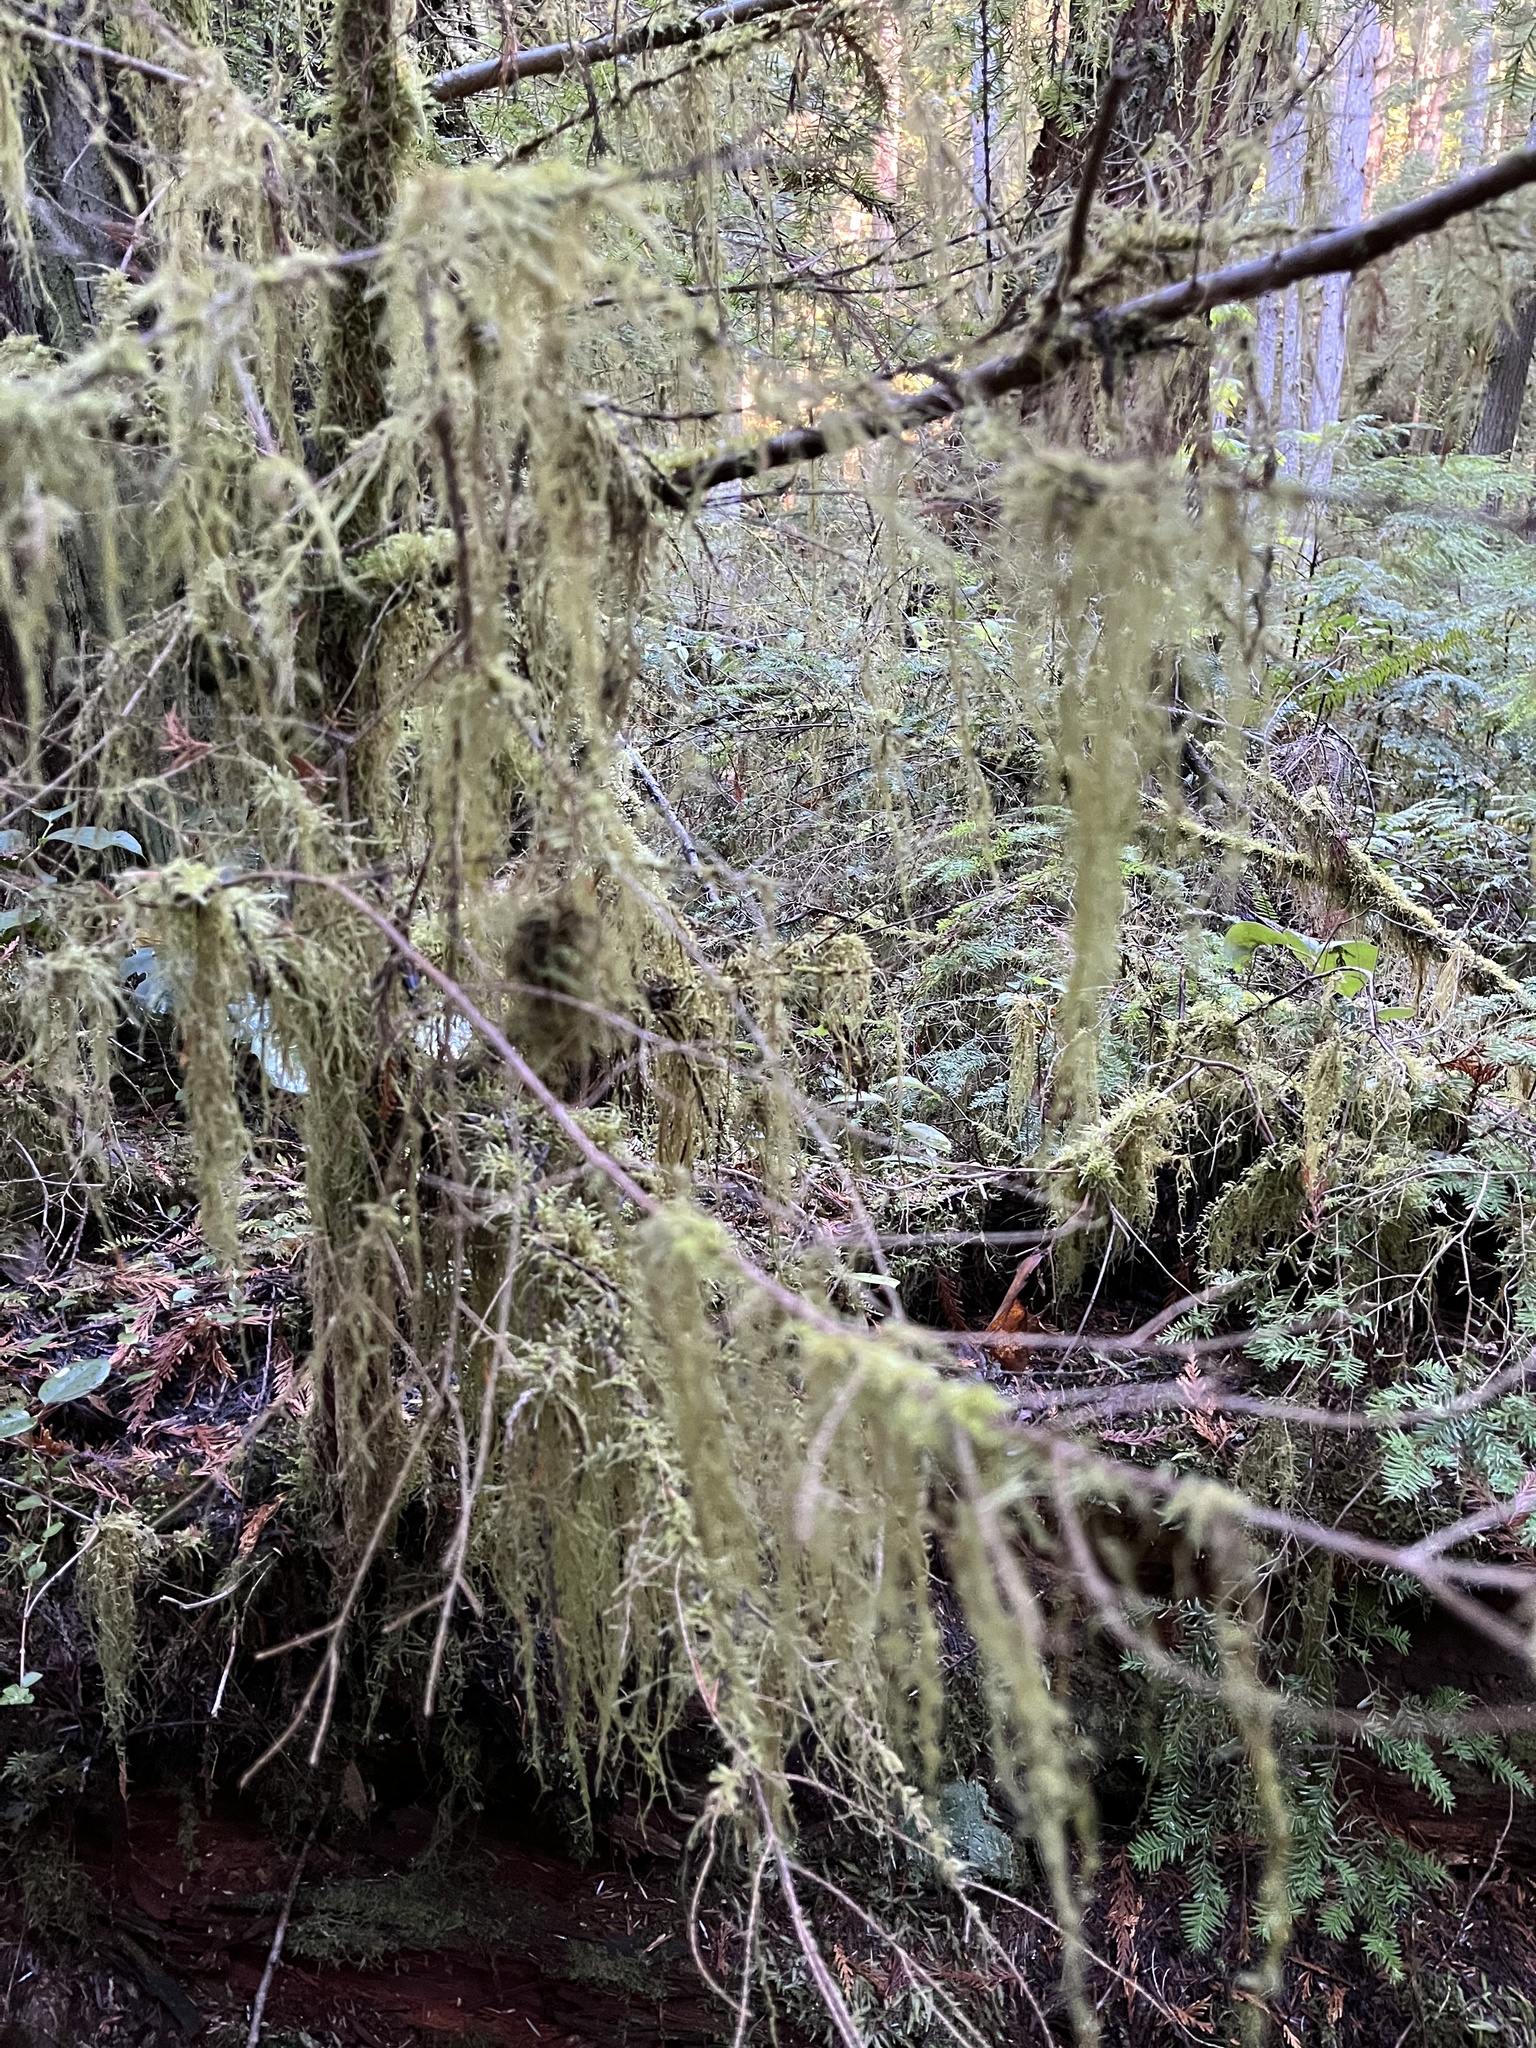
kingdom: Plantae
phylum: Bryophyta
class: Bryopsida
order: Hypnales
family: Lembophyllaceae
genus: Pseudisothecium
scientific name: Pseudisothecium stoloniferum
